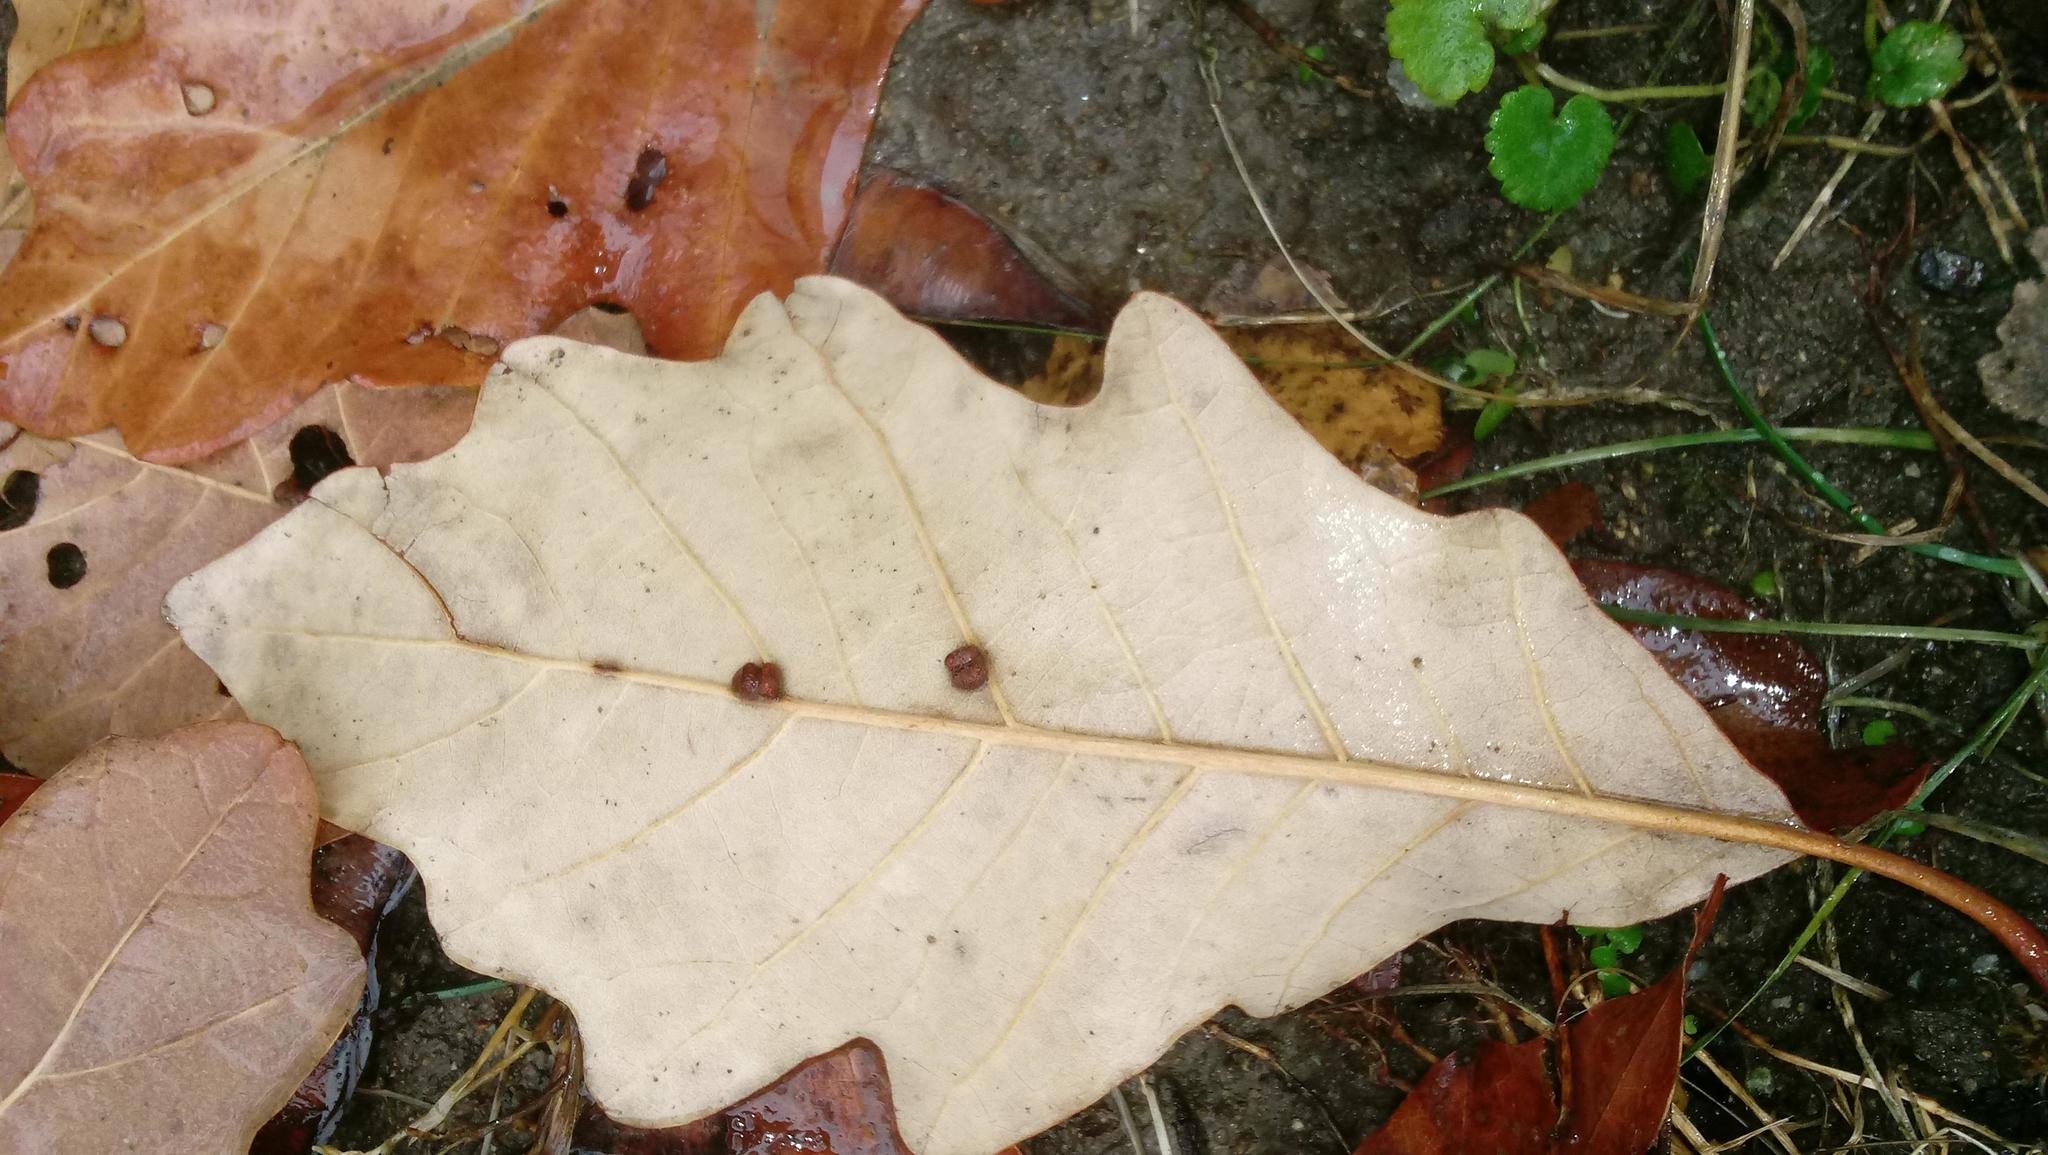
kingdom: Animalia
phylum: Arthropoda
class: Insecta
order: Hymenoptera
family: Cynipidae
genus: Andricus
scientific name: Andricus Druon ignotum
